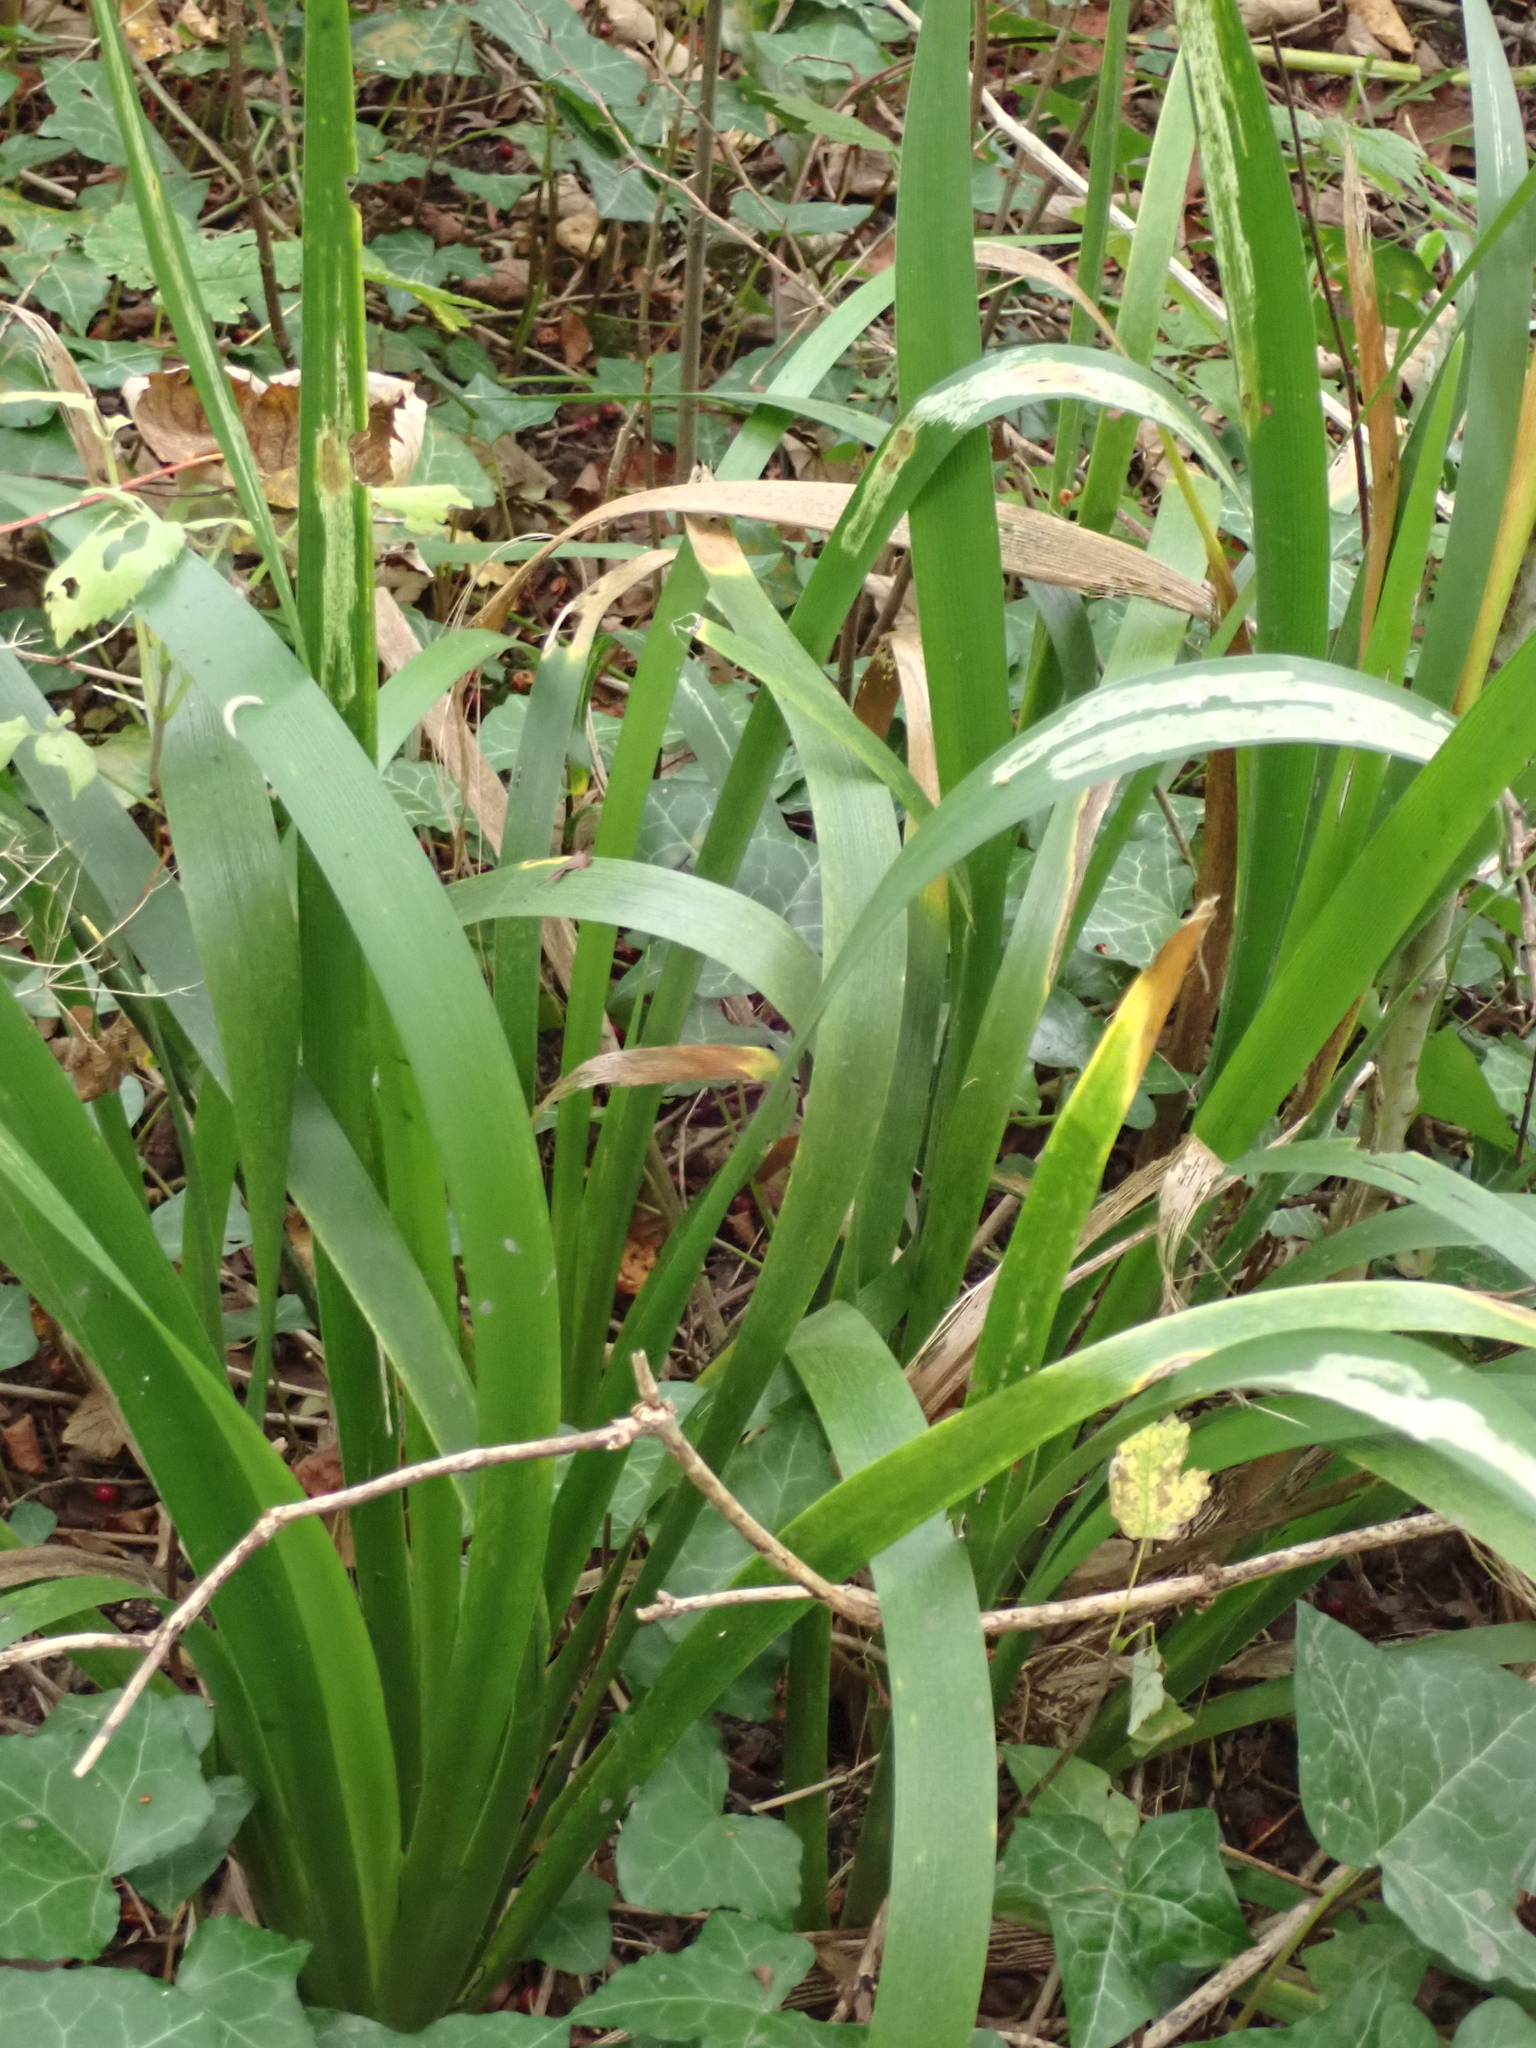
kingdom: Plantae
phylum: Tracheophyta
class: Liliopsida
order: Asparagales
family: Iridaceae
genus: Iris
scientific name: Iris foetidissima
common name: Stinking iris
